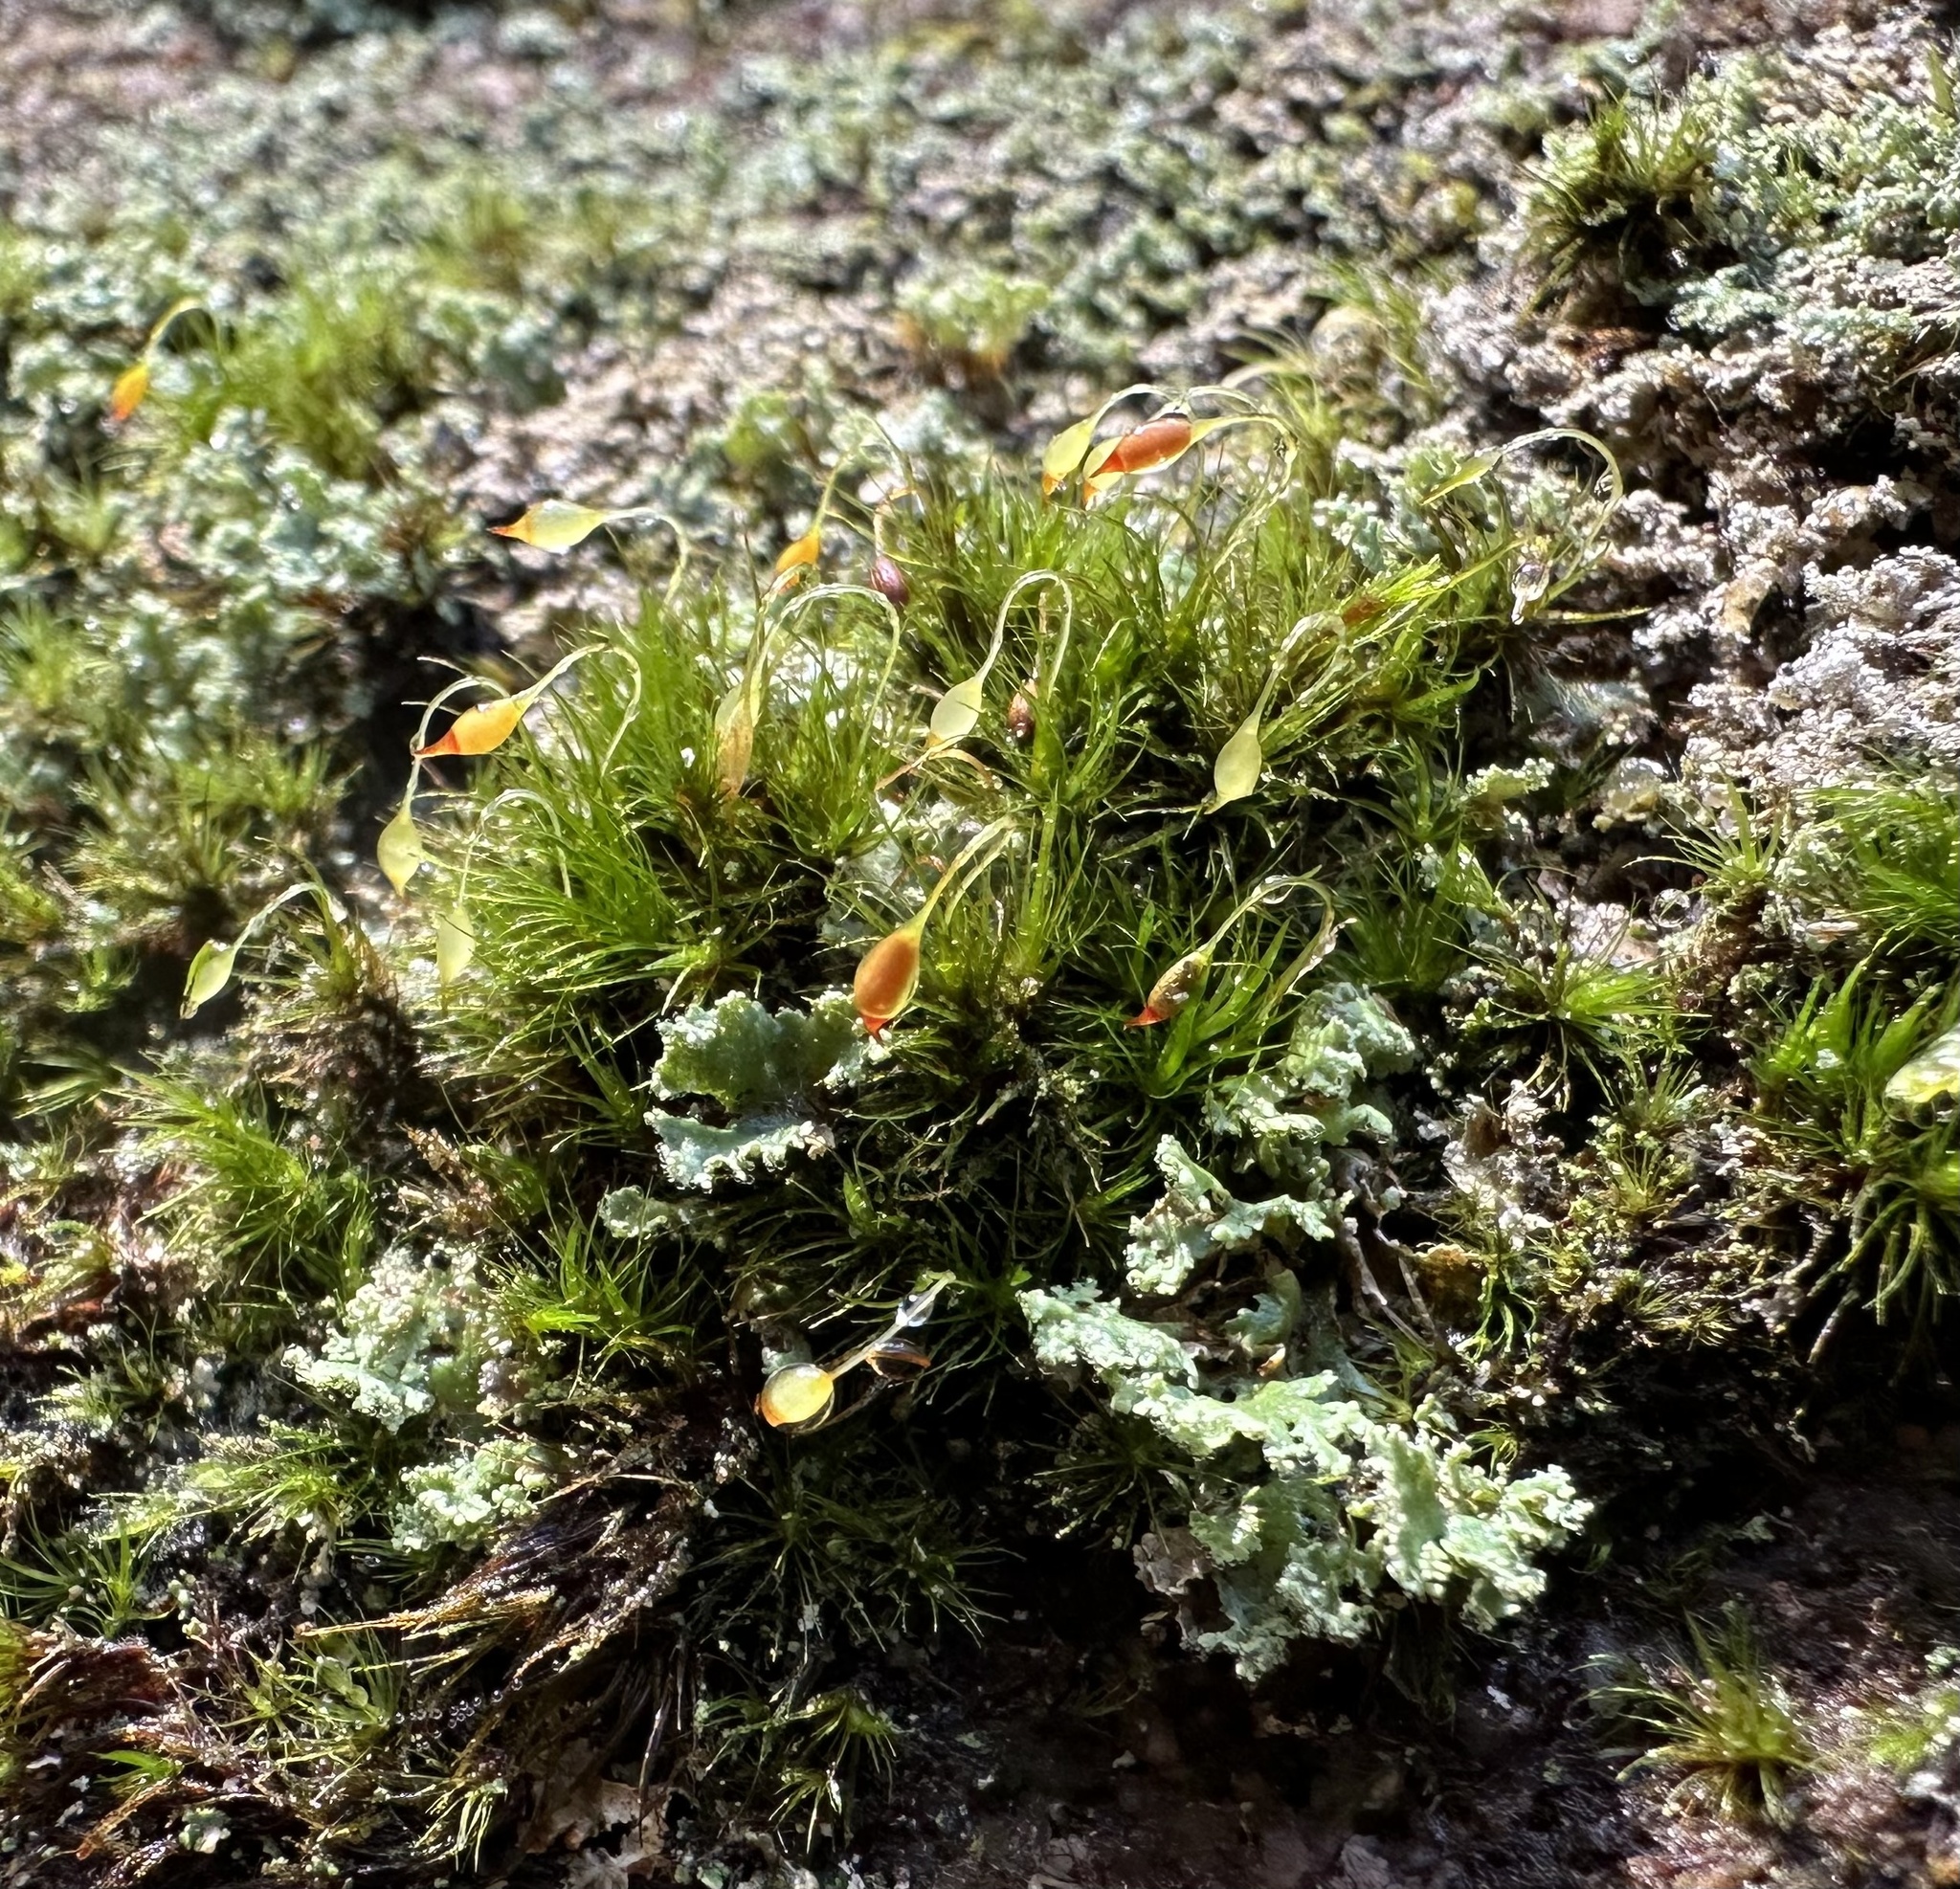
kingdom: Plantae
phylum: Bryophyta
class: Bryopsida
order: Dicranales
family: Dicranellaceae
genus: Dicranella
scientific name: Dicranella heteromalla
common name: Silky forklet moss
